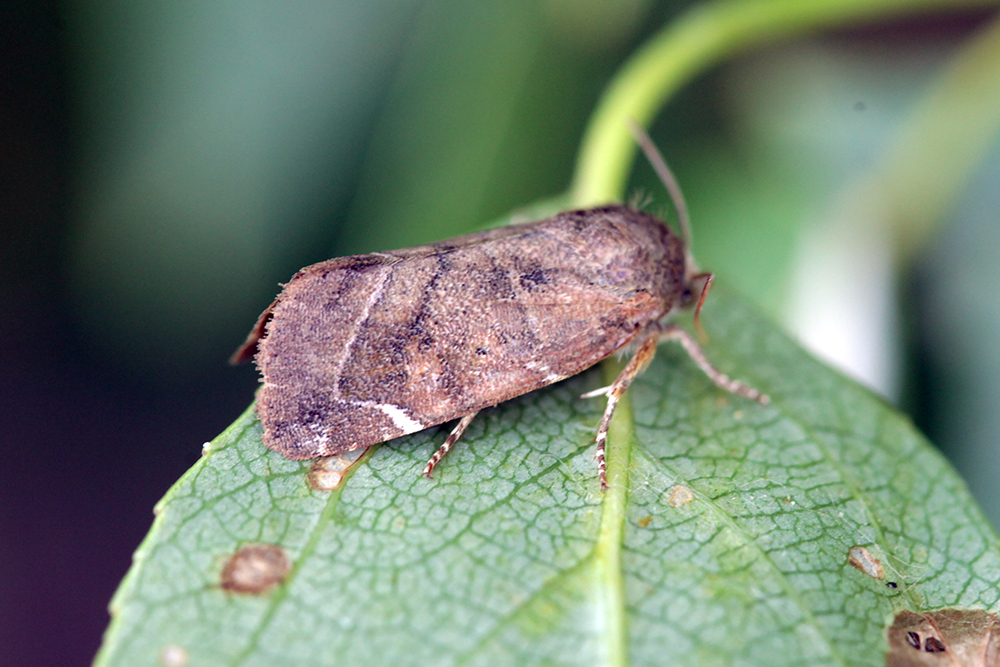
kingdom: Animalia
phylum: Arthropoda
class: Insecta
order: Lepidoptera
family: Noctuidae
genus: Cosmia
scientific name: Cosmia affinis
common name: Lesser-spotted pinion
